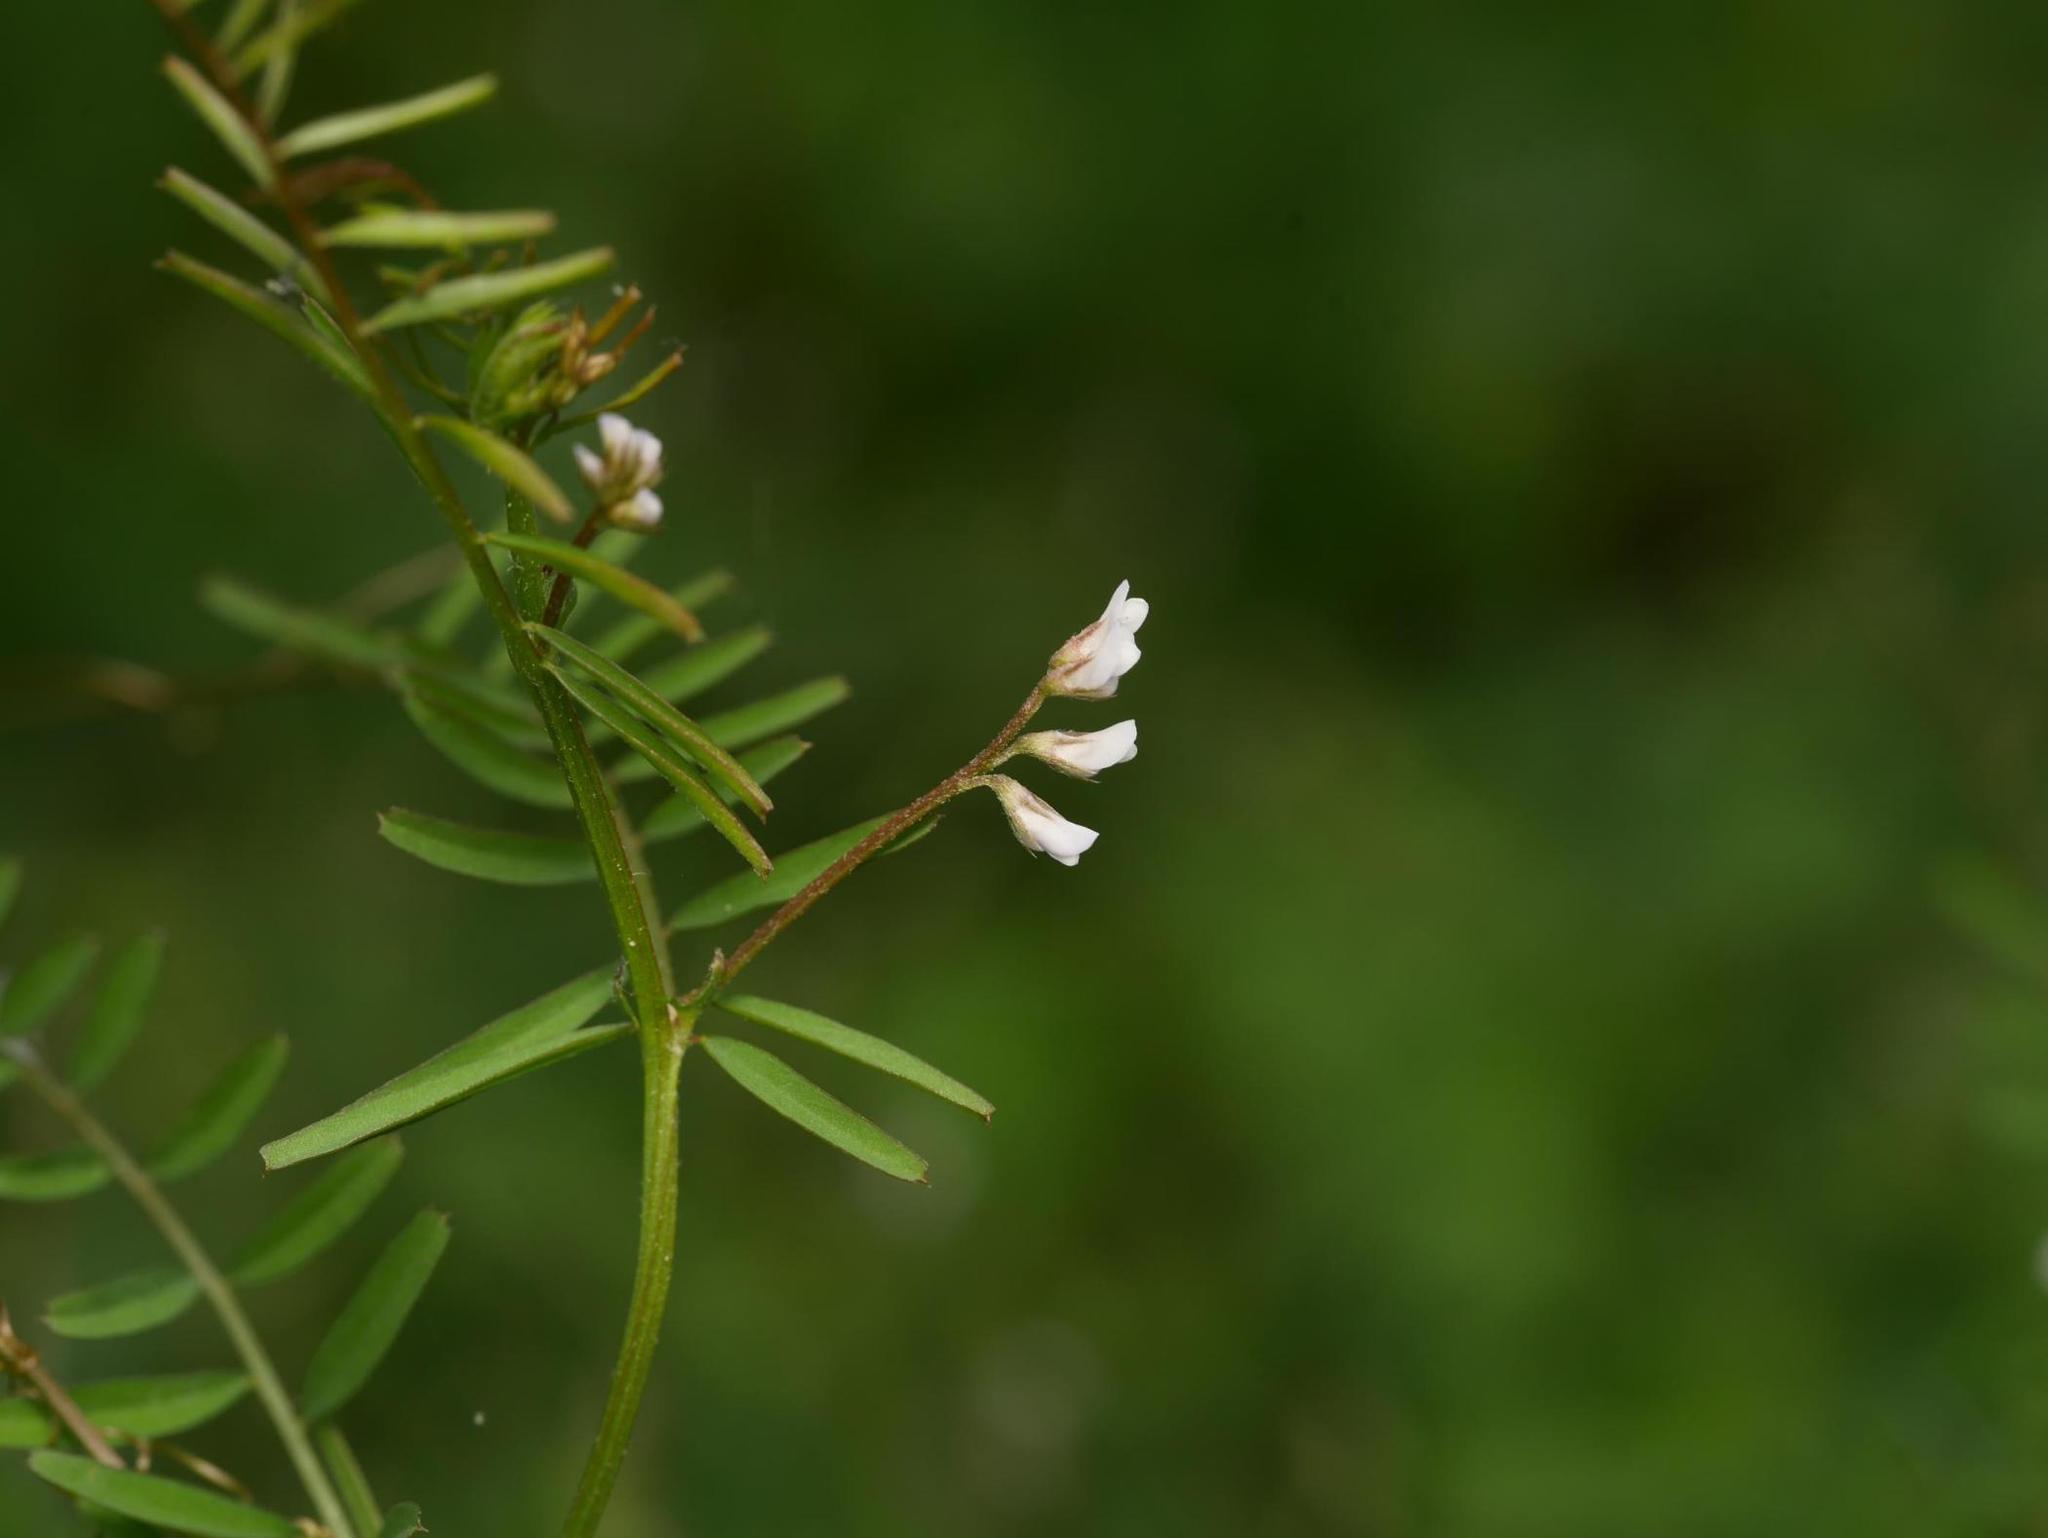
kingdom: Plantae
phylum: Tracheophyta
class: Magnoliopsida
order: Fabales
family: Fabaceae
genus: Vicia
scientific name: Vicia hirsuta
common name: Tiny vetch
